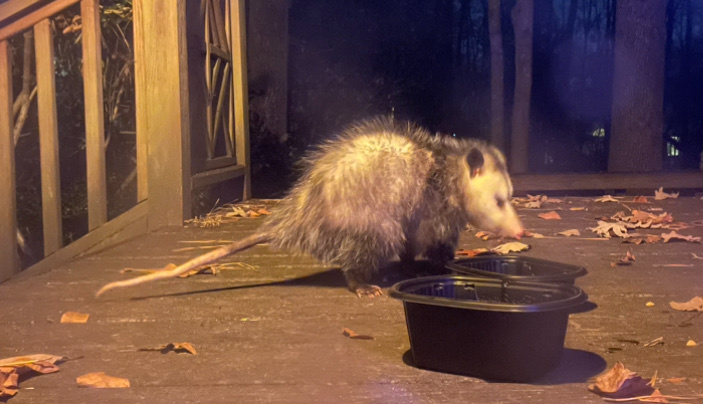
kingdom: Animalia
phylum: Chordata
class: Mammalia
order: Didelphimorphia
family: Didelphidae
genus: Didelphis
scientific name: Didelphis virginiana
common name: Virginia opossum
